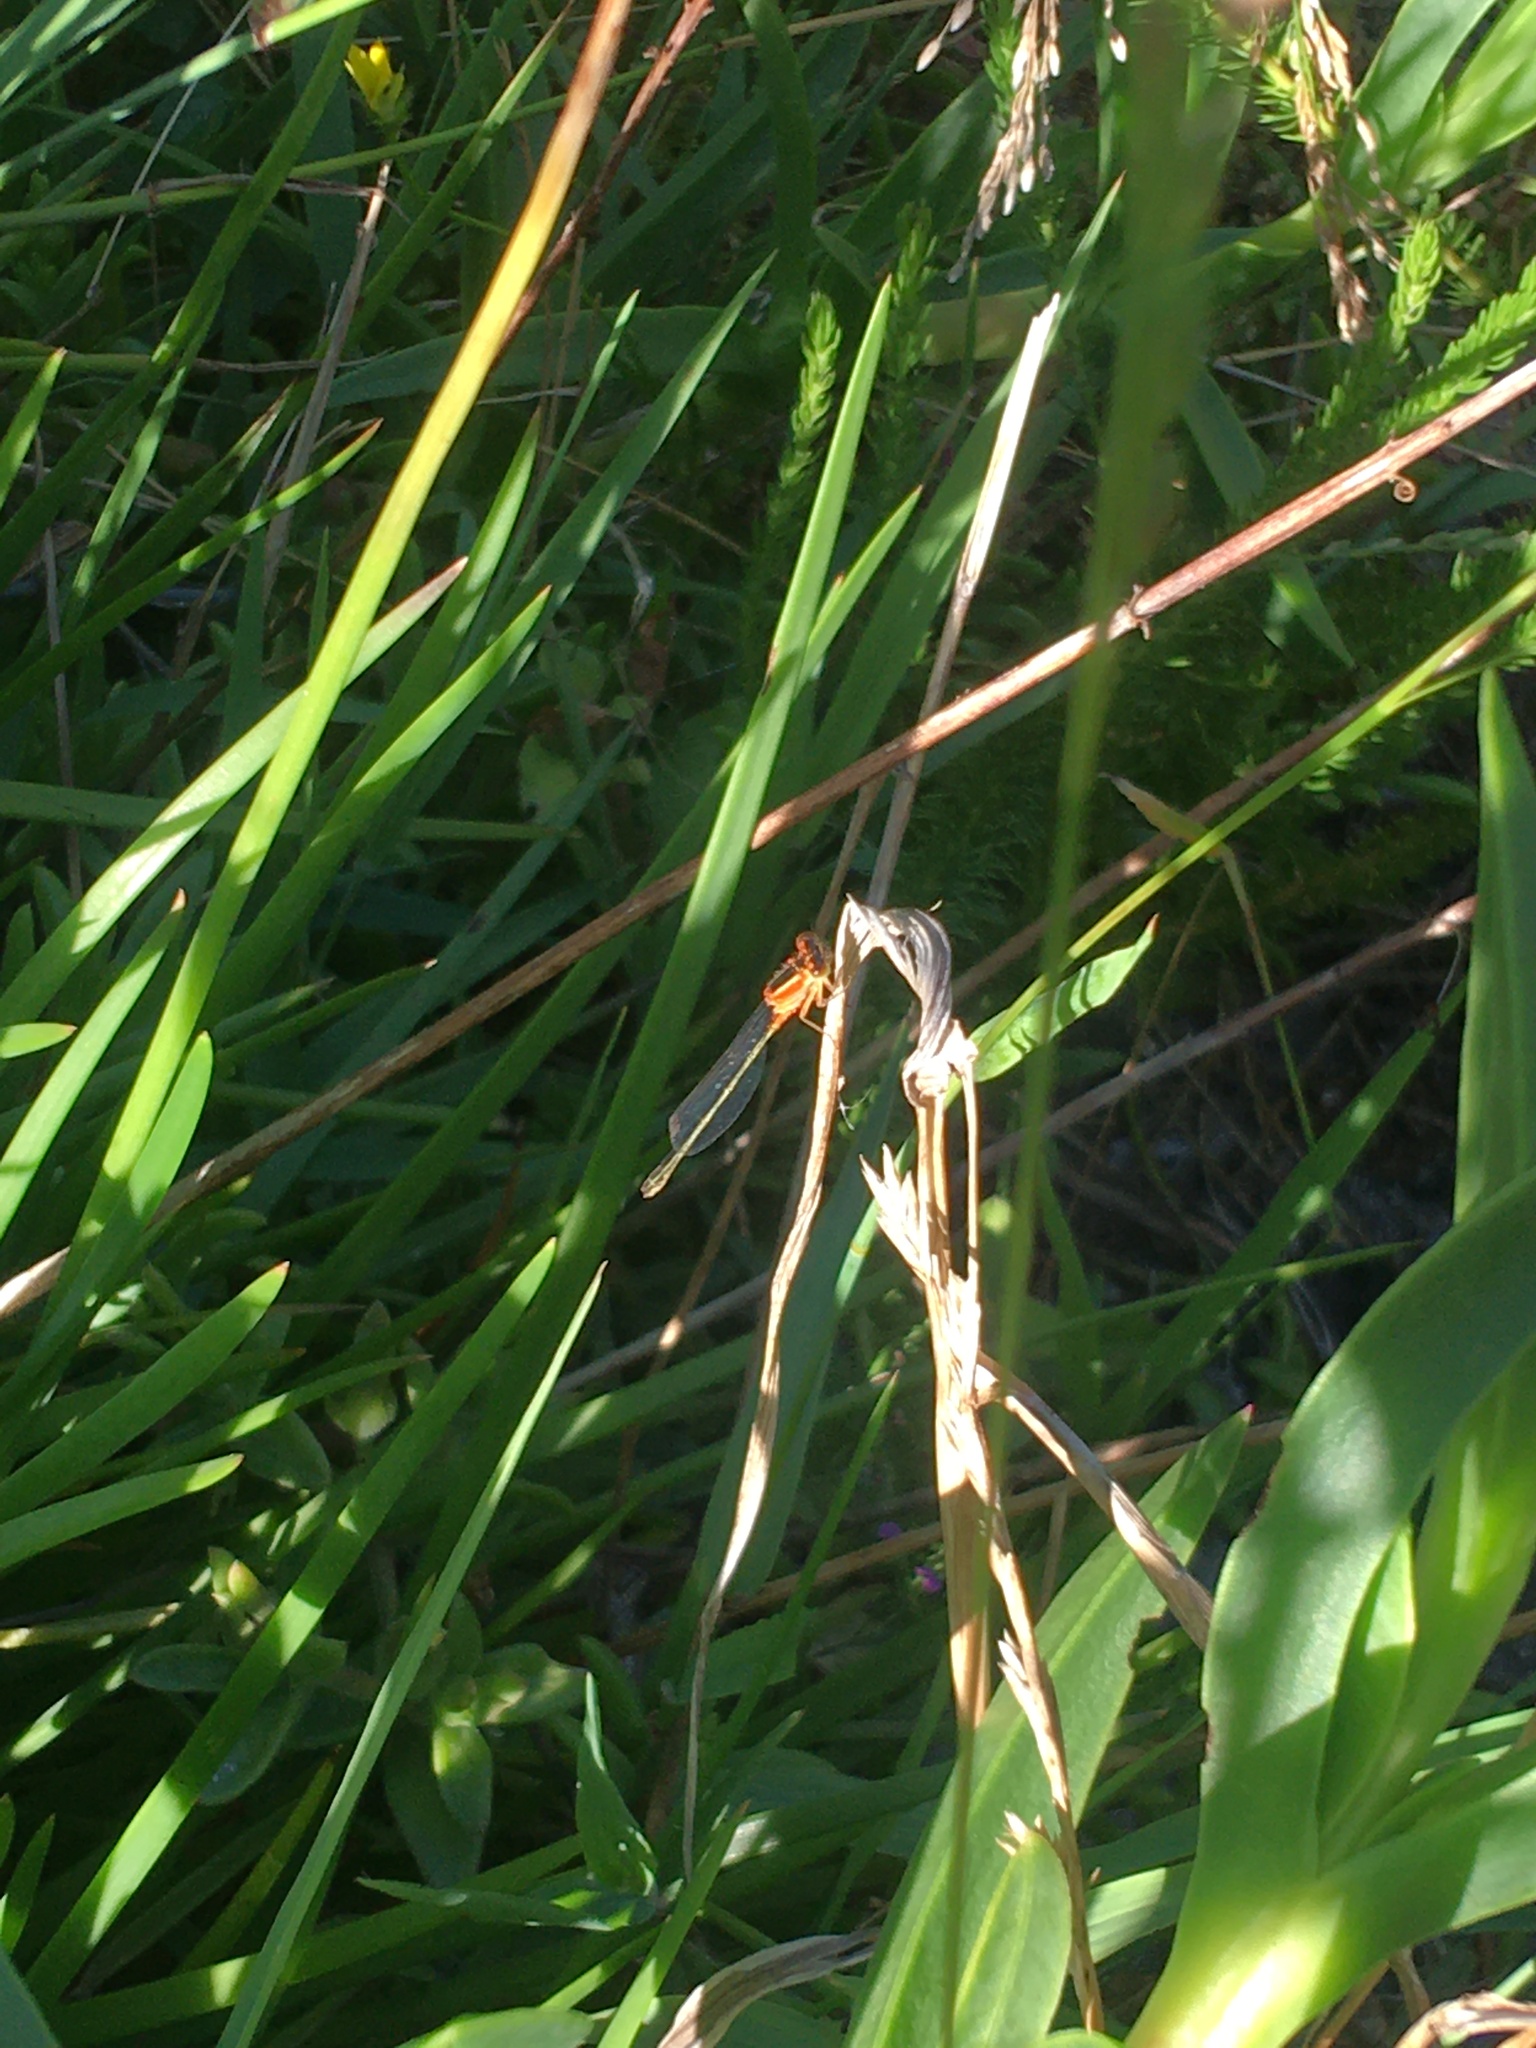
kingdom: Animalia
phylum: Arthropoda
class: Insecta
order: Odonata
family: Coenagrionidae
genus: Ischnura
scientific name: Ischnura senegalensis
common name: Tropical bluetail
